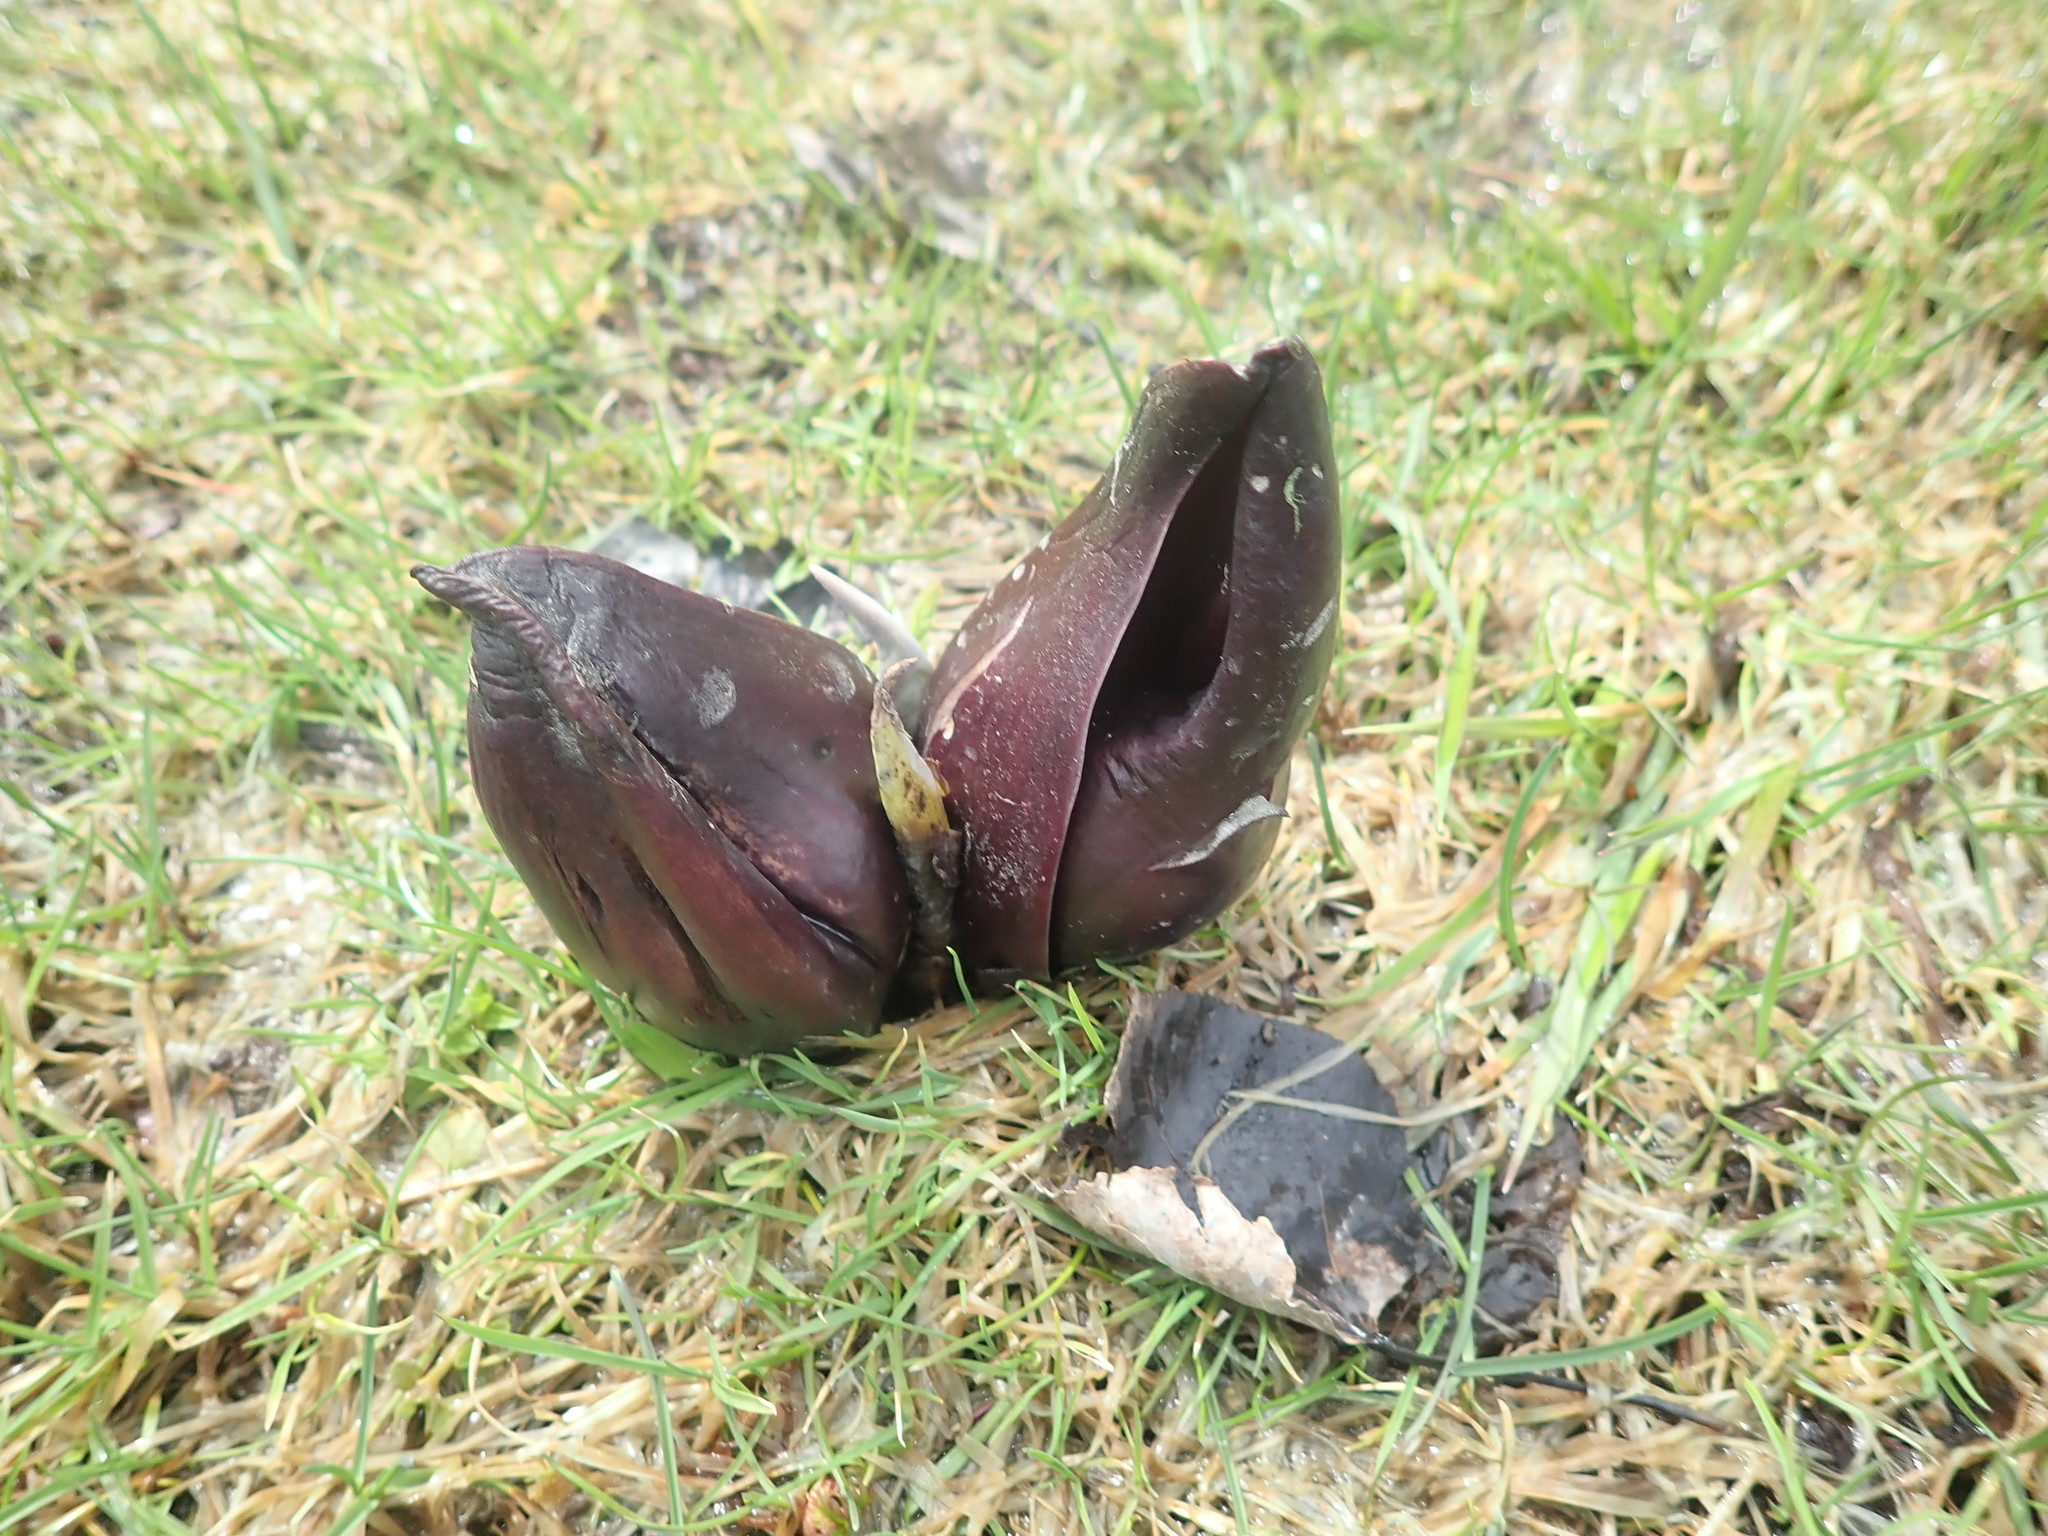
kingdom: Plantae
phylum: Tracheophyta
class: Liliopsida
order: Alismatales
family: Araceae
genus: Symplocarpus
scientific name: Symplocarpus foetidus
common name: Eastern skunk cabbage
